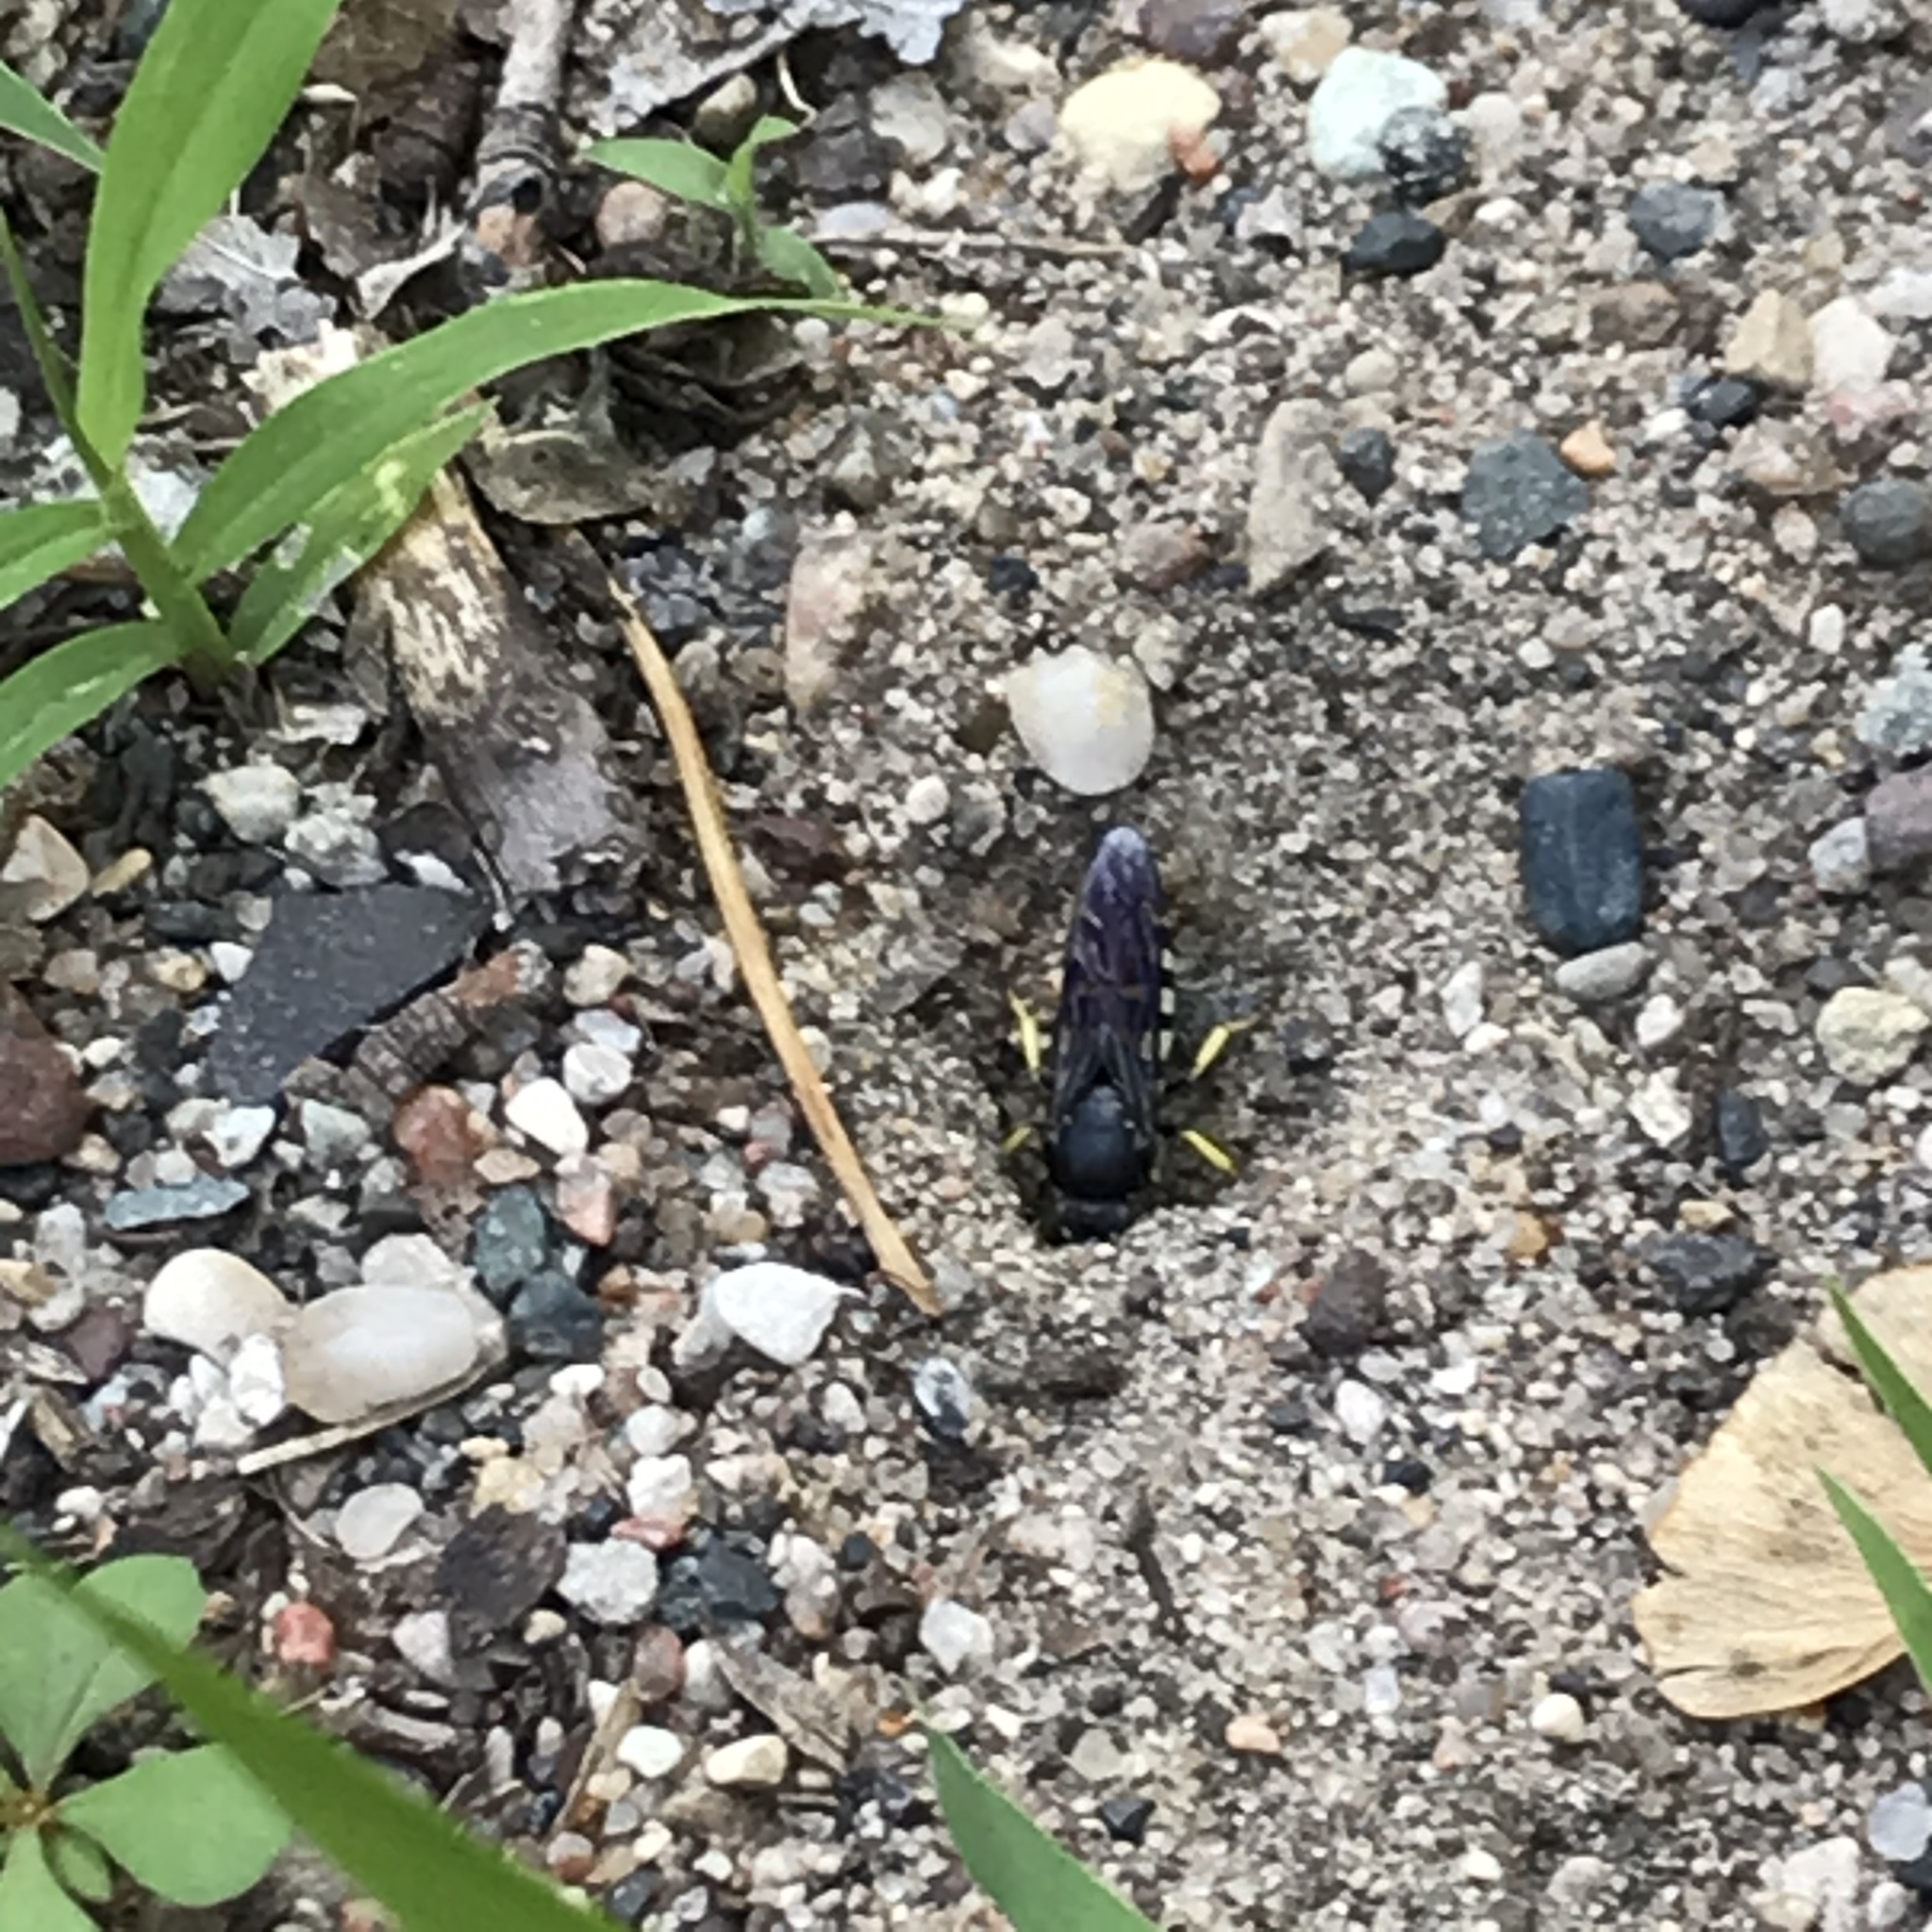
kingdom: Animalia
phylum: Arthropoda
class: Insecta
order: Hymenoptera
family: Crabronidae
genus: Bicyrtes
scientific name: Bicyrtes quadrifasciatus
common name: Four-banded stink bug hunter wasp
